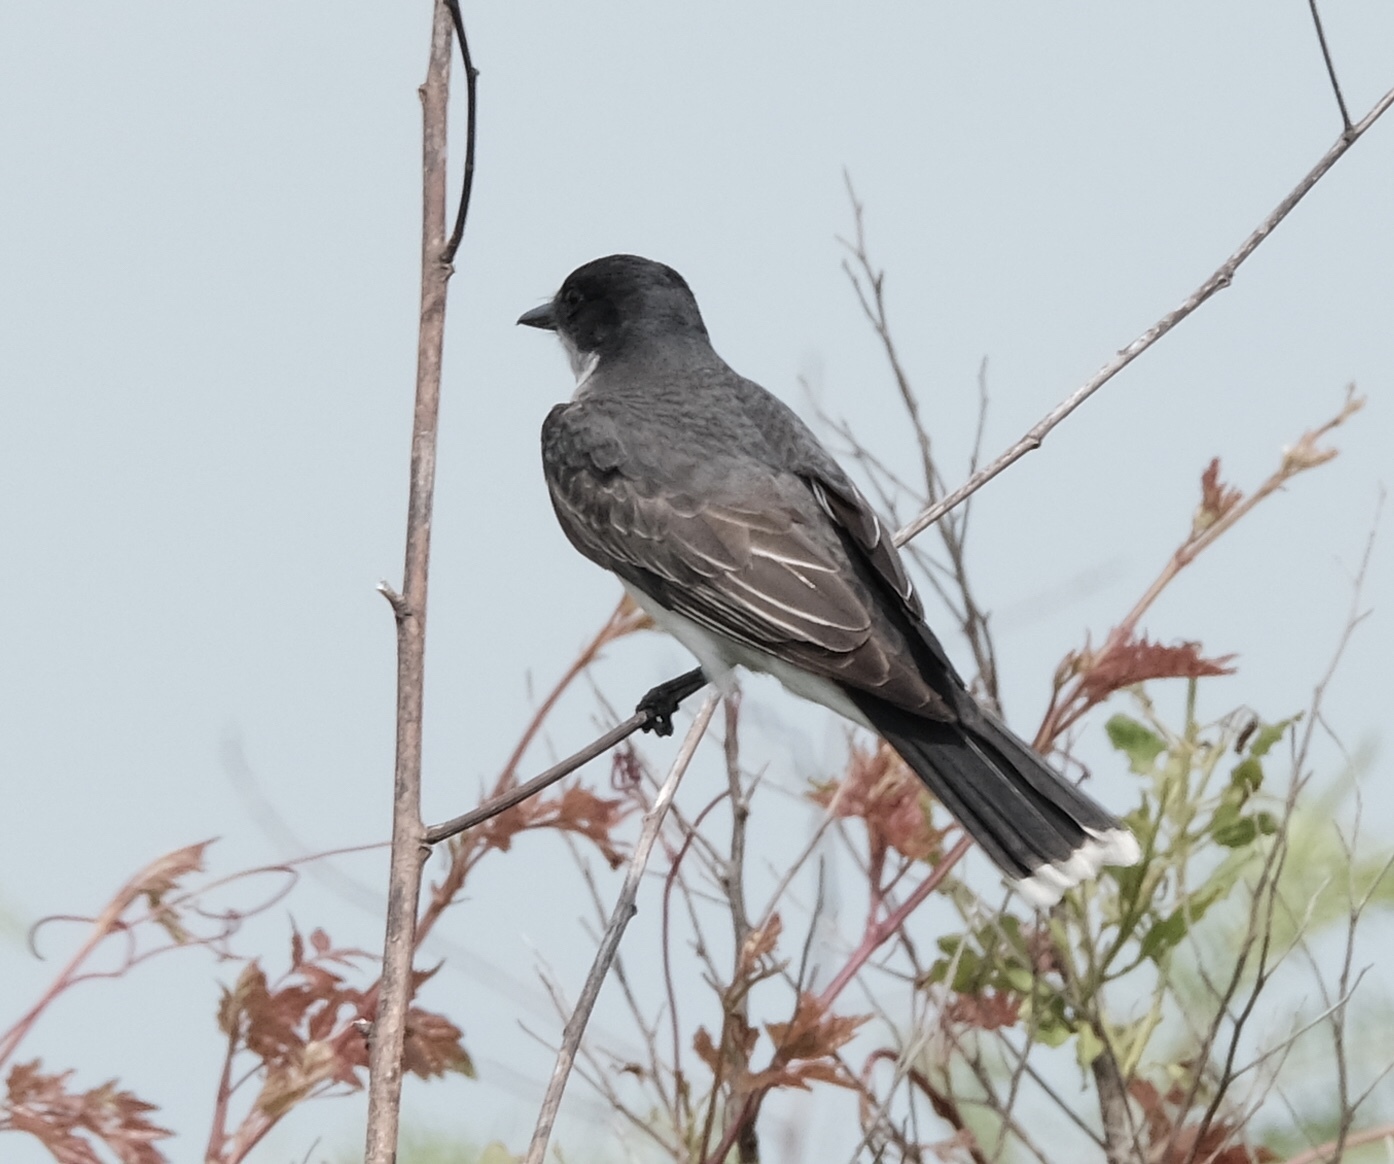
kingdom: Animalia
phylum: Chordata
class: Aves
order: Passeriformes
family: Tyrannidae
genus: Tyrannus
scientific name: Tyrannus tyrannus
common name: Eastern kingbird
